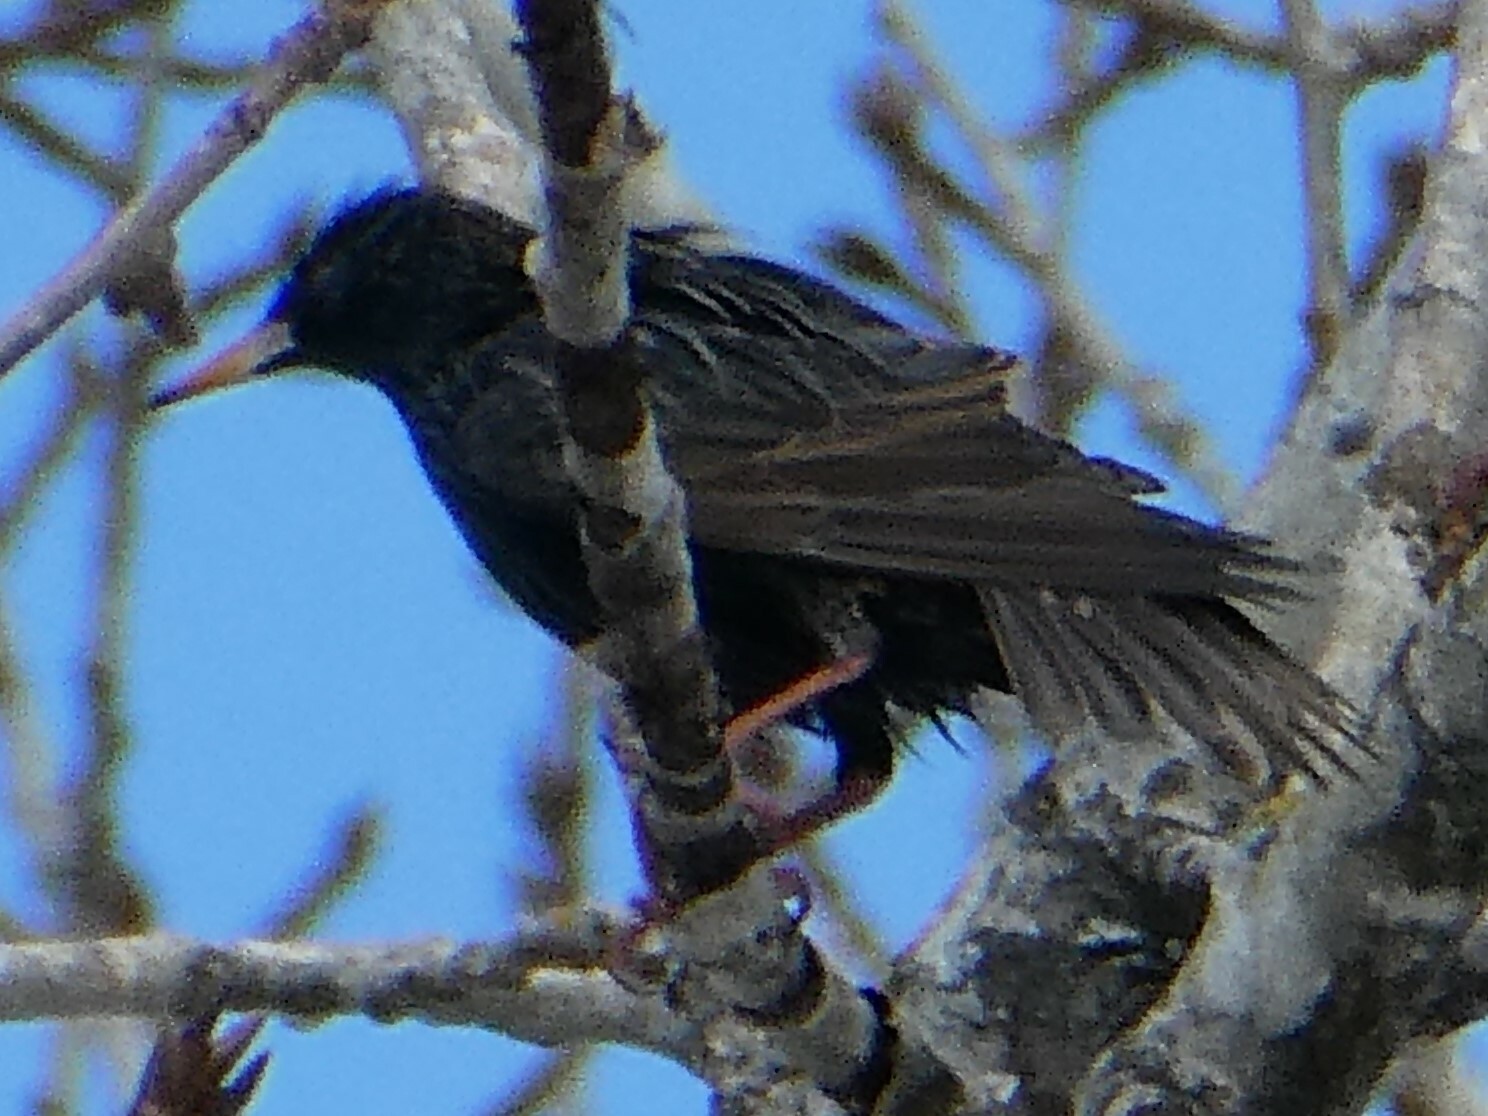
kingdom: Animalia
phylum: Chordata
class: Aves
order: Passeriformes
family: Sturnidae
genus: Sturnus
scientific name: Sturnus vulgaris
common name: Common starling
